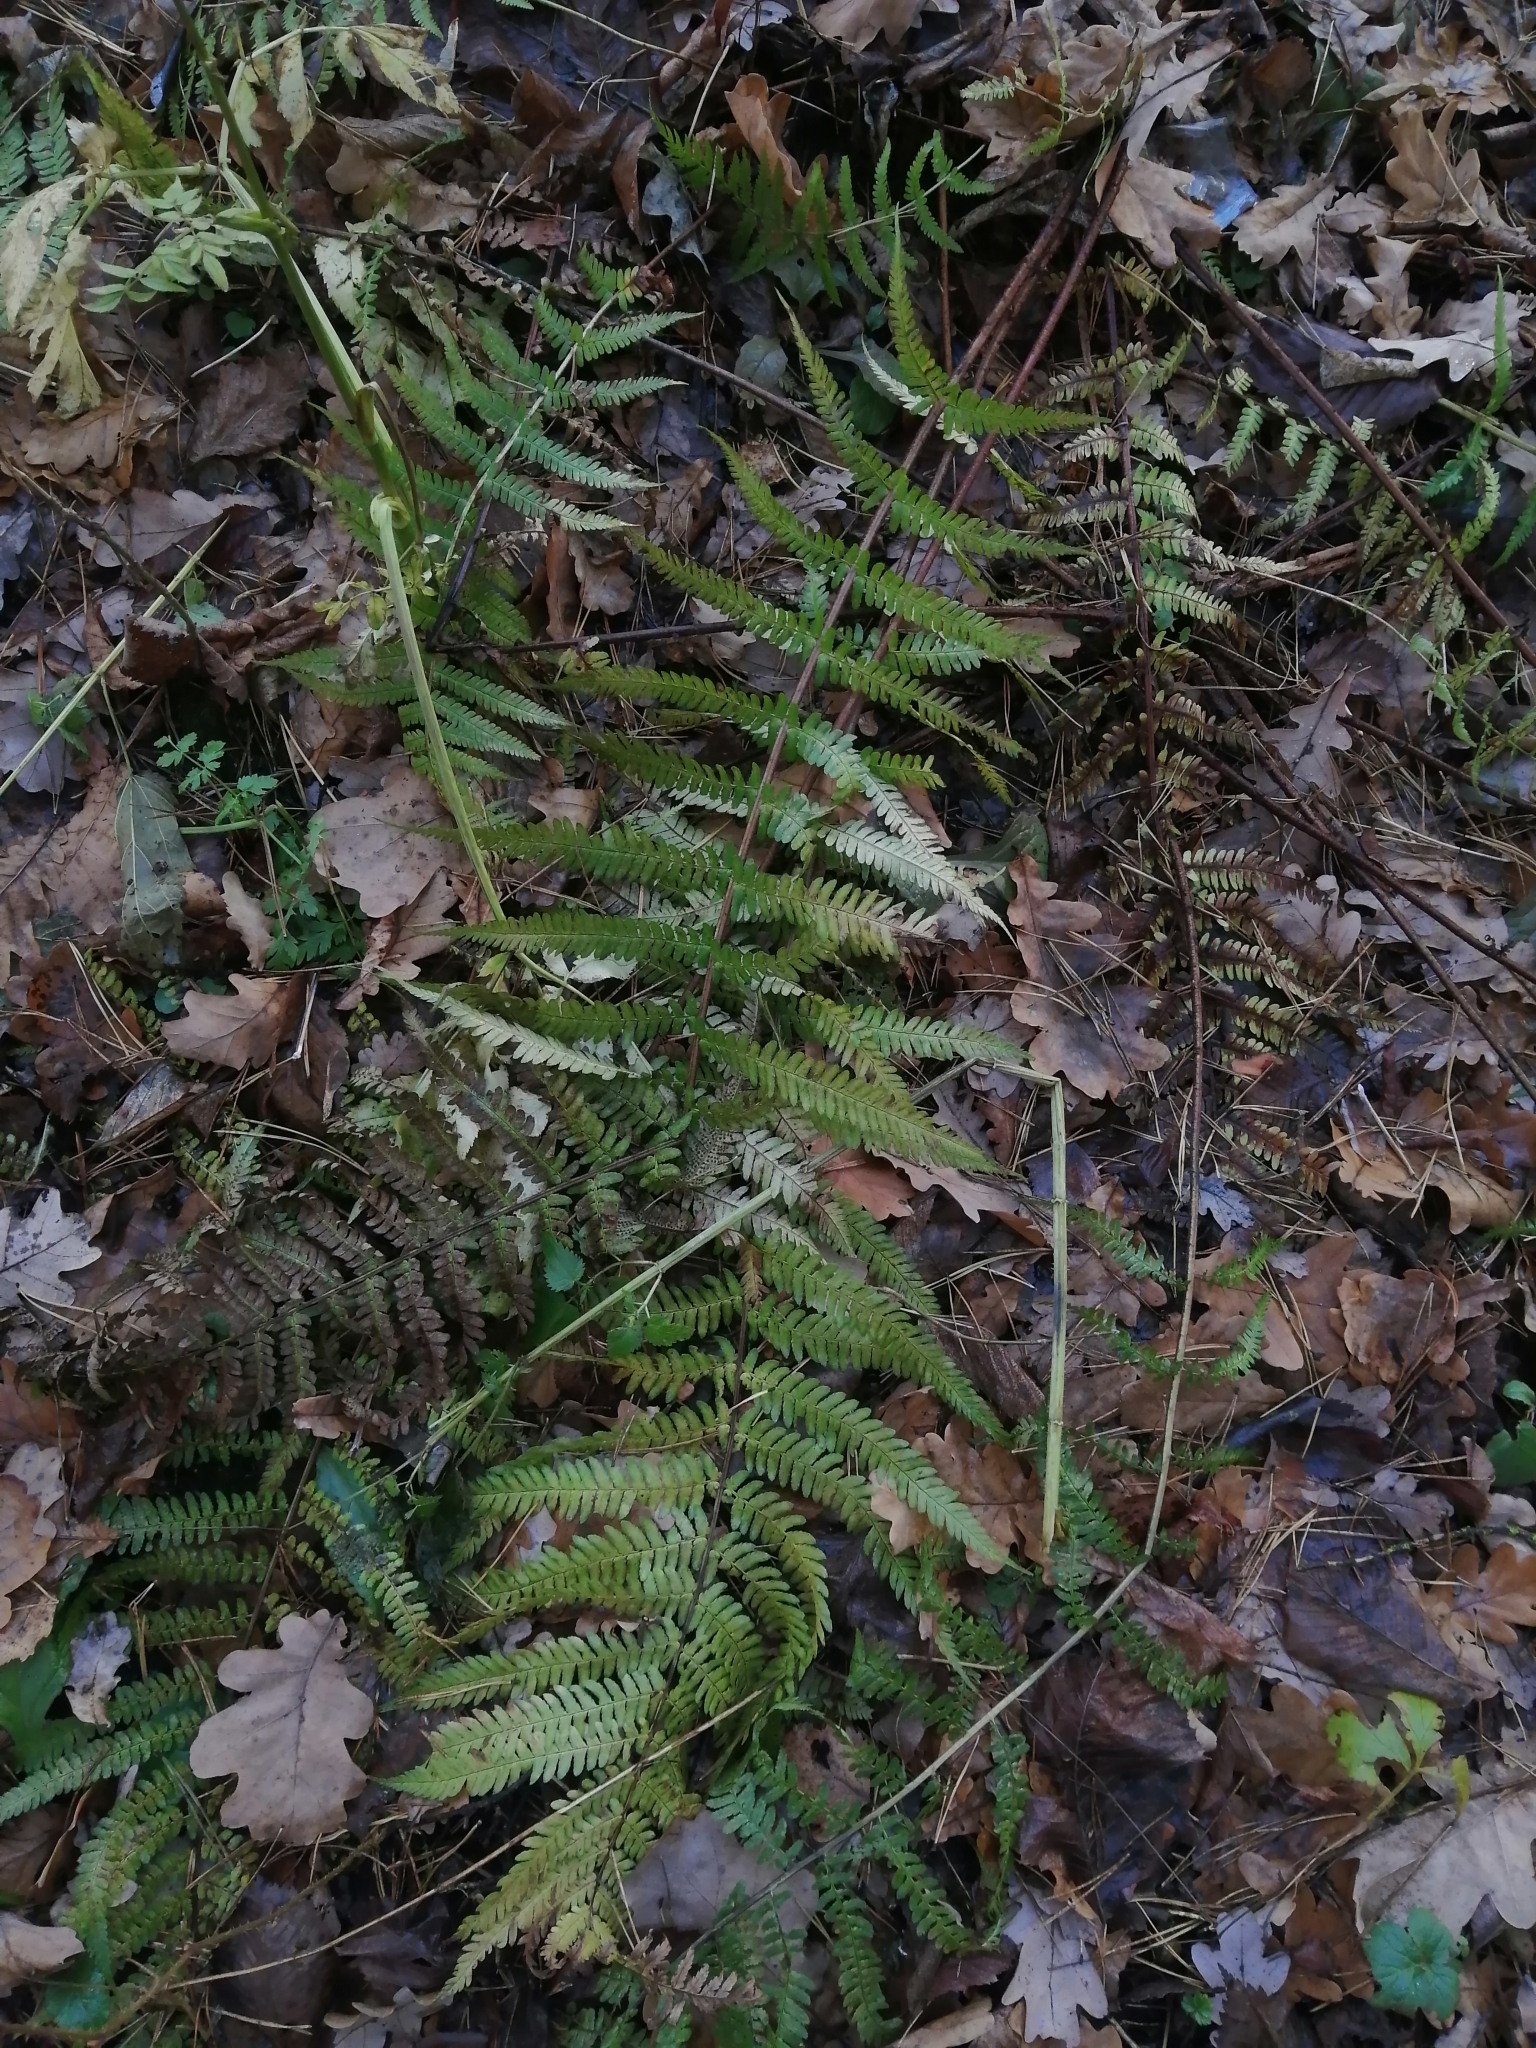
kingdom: Plantae
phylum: Tracheophyta
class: Polypodiopsida
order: Polypodiales
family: Dryopteridaceae
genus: Dryopteris
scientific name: Dryopteris filix-mas
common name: Male fern
